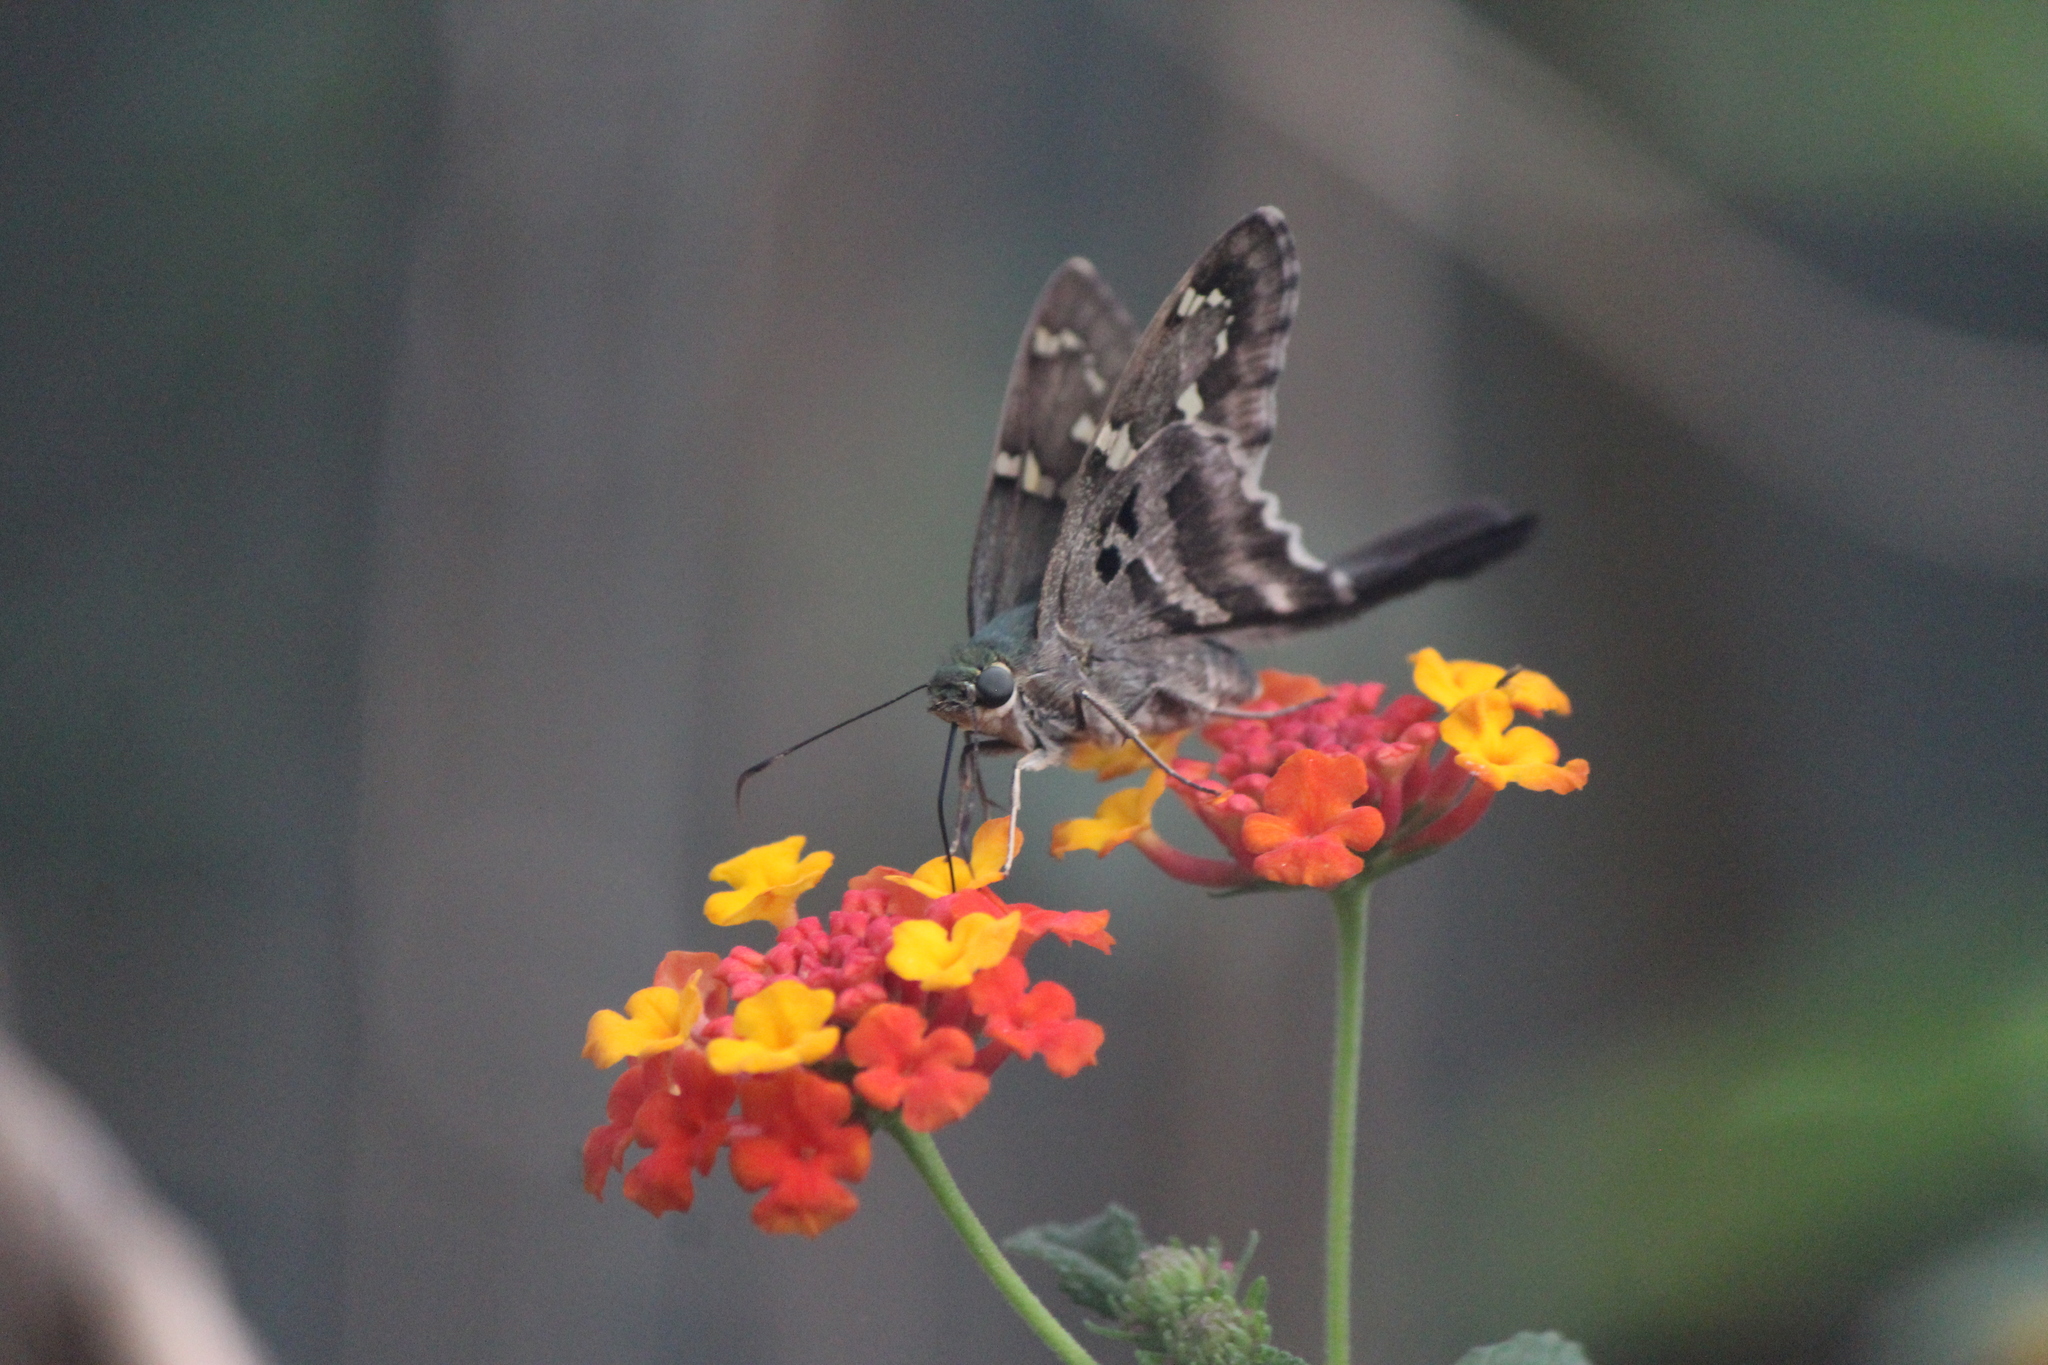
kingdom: Animalia
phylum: Arthropoda
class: Insecta
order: Lepidoptera
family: Hesperiidae
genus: Urbanus
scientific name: Urbanus proteus
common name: Long-tailed skipper
